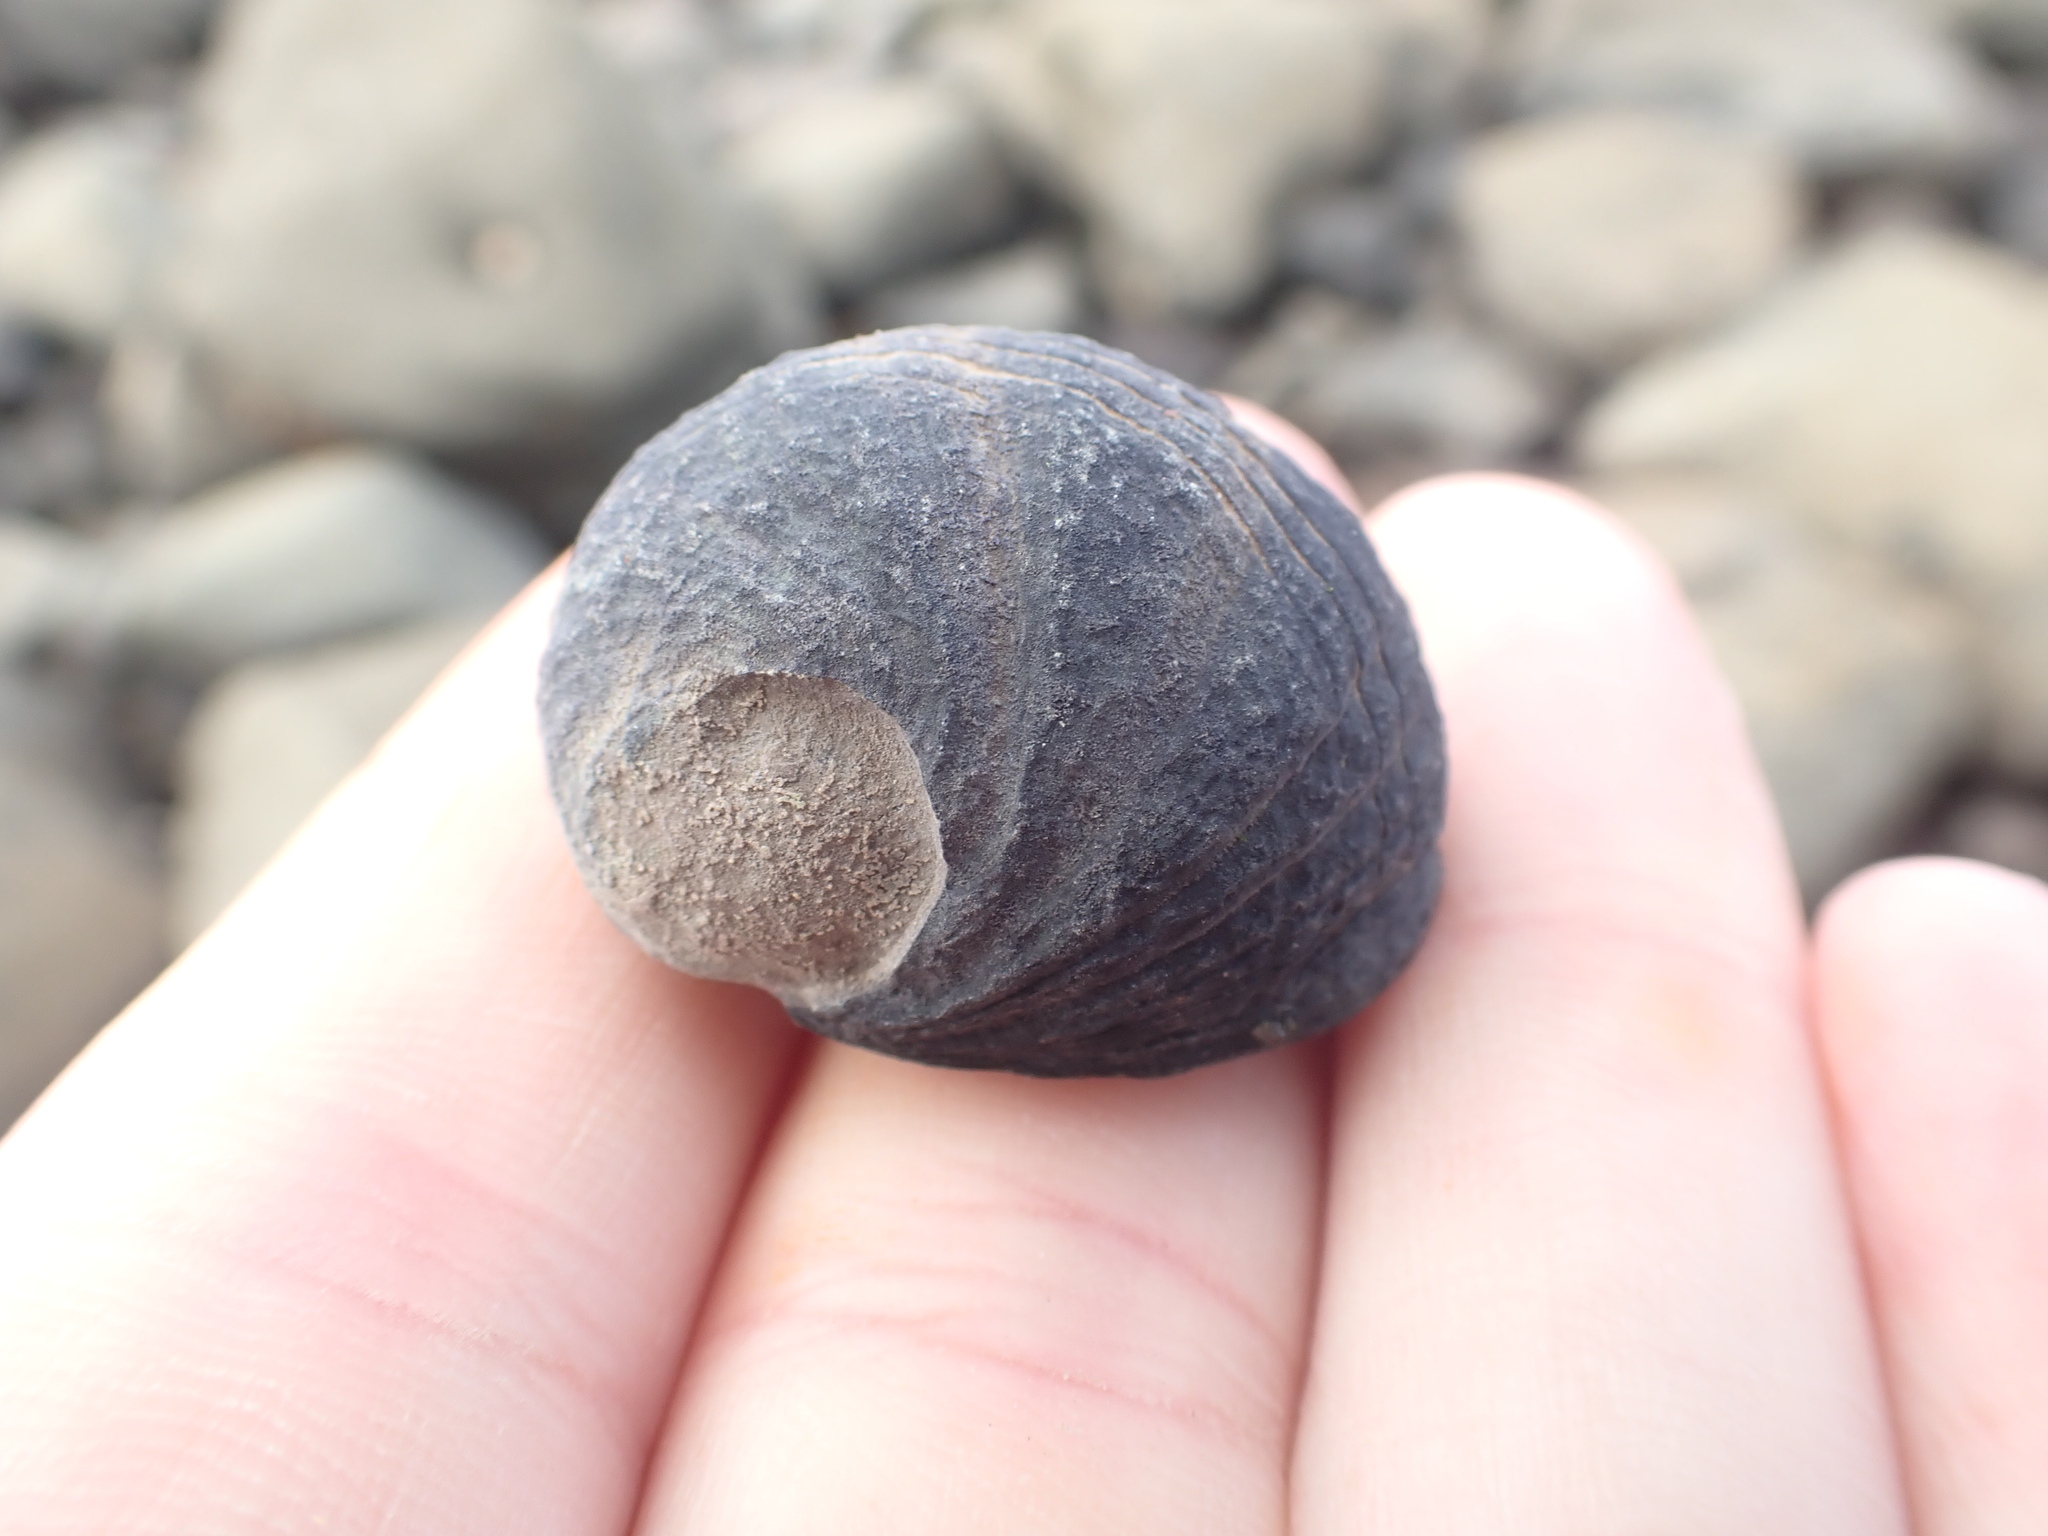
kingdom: Animalia
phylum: Mollusca
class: Gastropoda
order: Cycloneritida
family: Neritidae
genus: Nerita
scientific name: Nerita melanotragus
